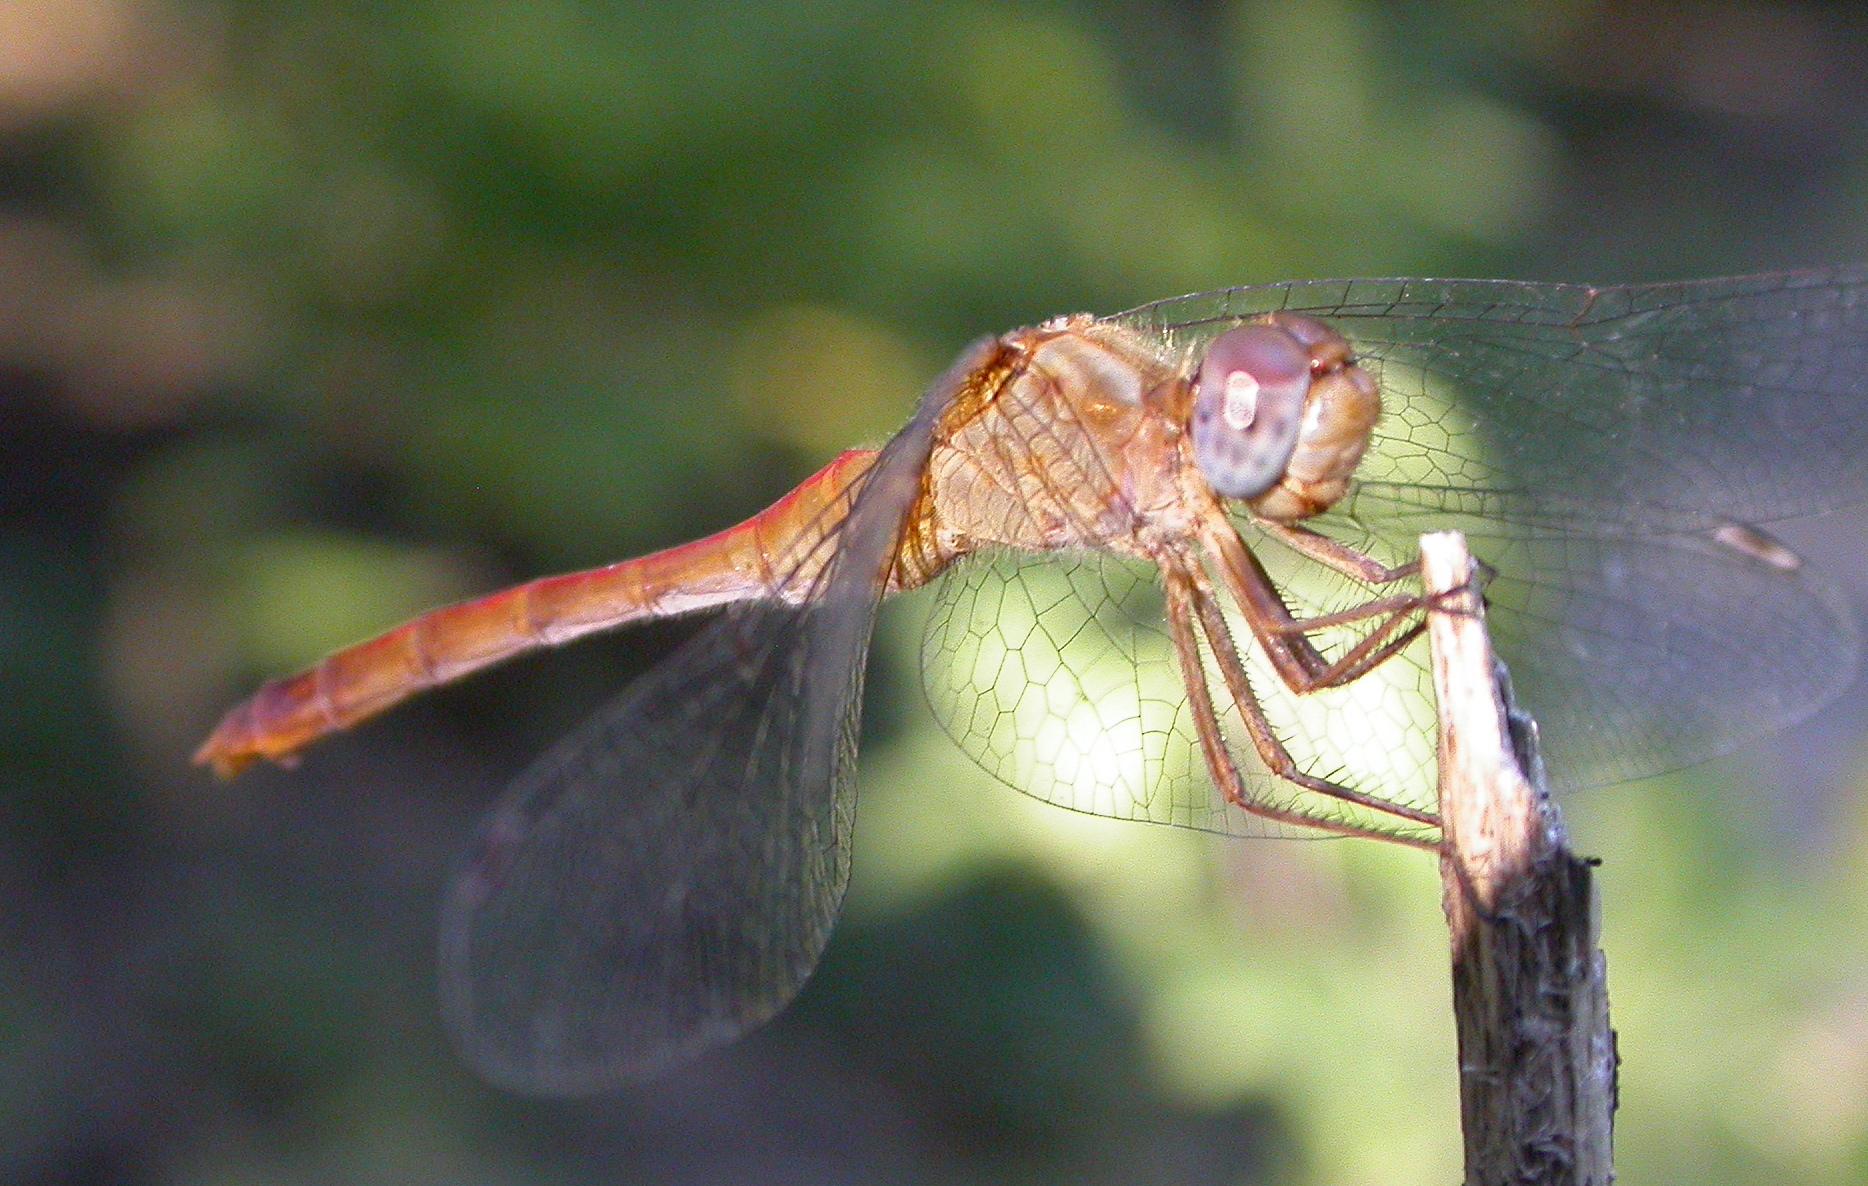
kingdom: Animalia
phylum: Arthropoda
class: Insecta
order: Odonata
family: Libellulidae
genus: Sympetrum
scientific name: Sympetrum vicinum
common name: Autumn meadowhawk
